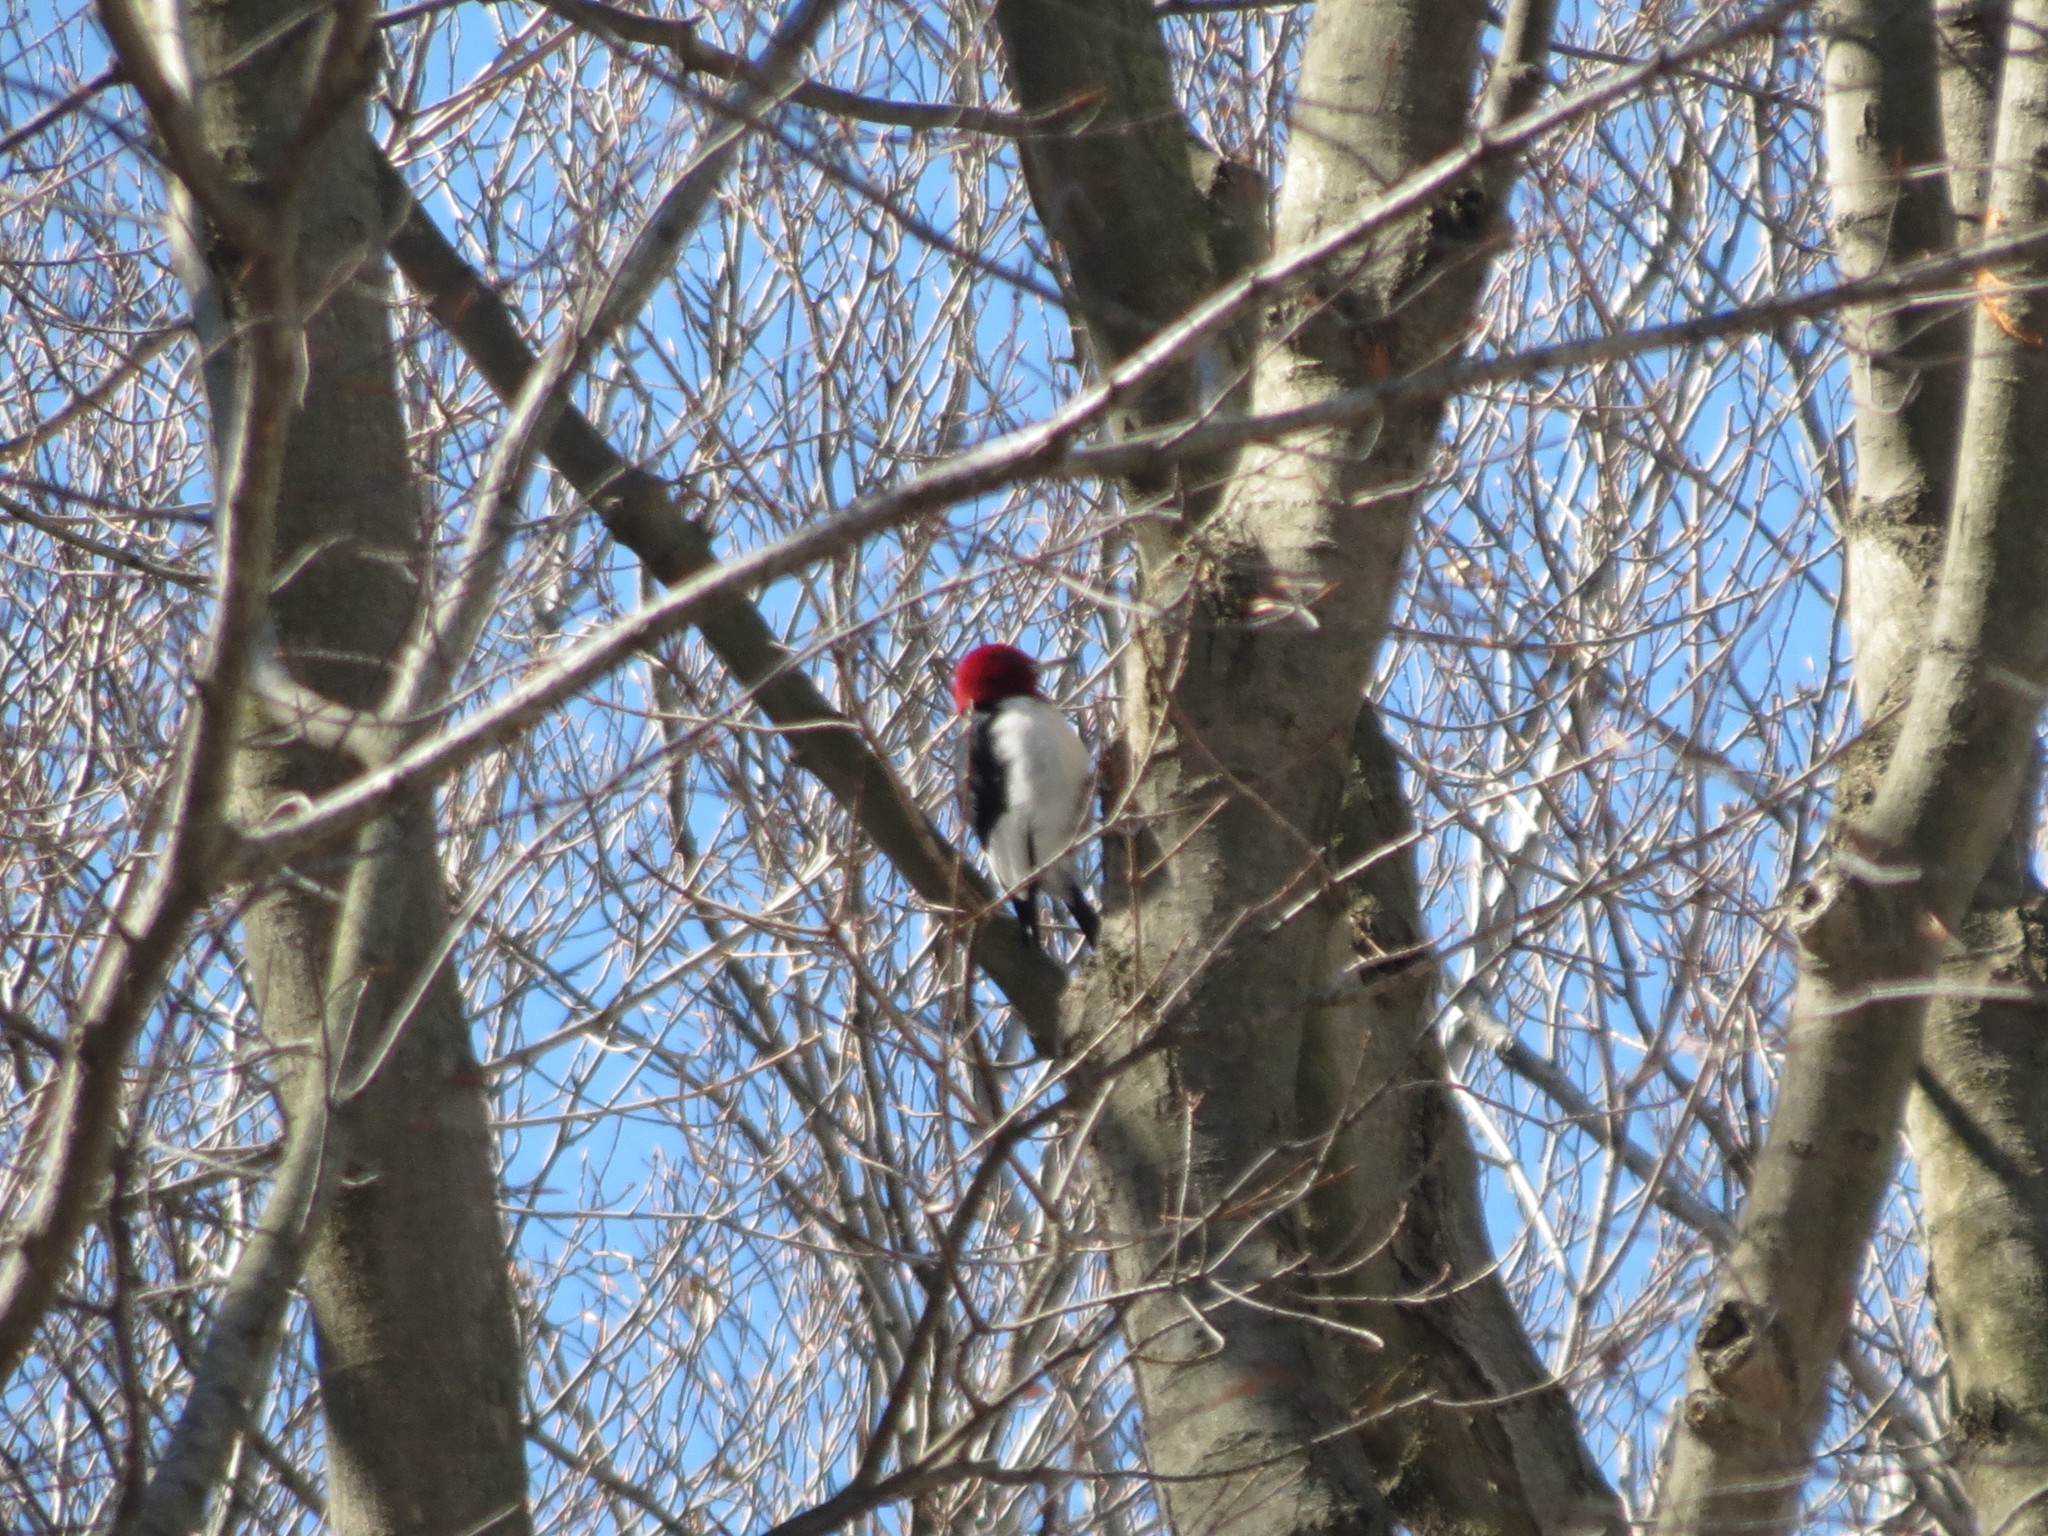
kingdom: Animalia
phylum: Chordata
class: Aves
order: Piciformes
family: Picidae
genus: Melanerpes
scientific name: Melanerpes erythrocephalus
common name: Red-headed woodpecker
